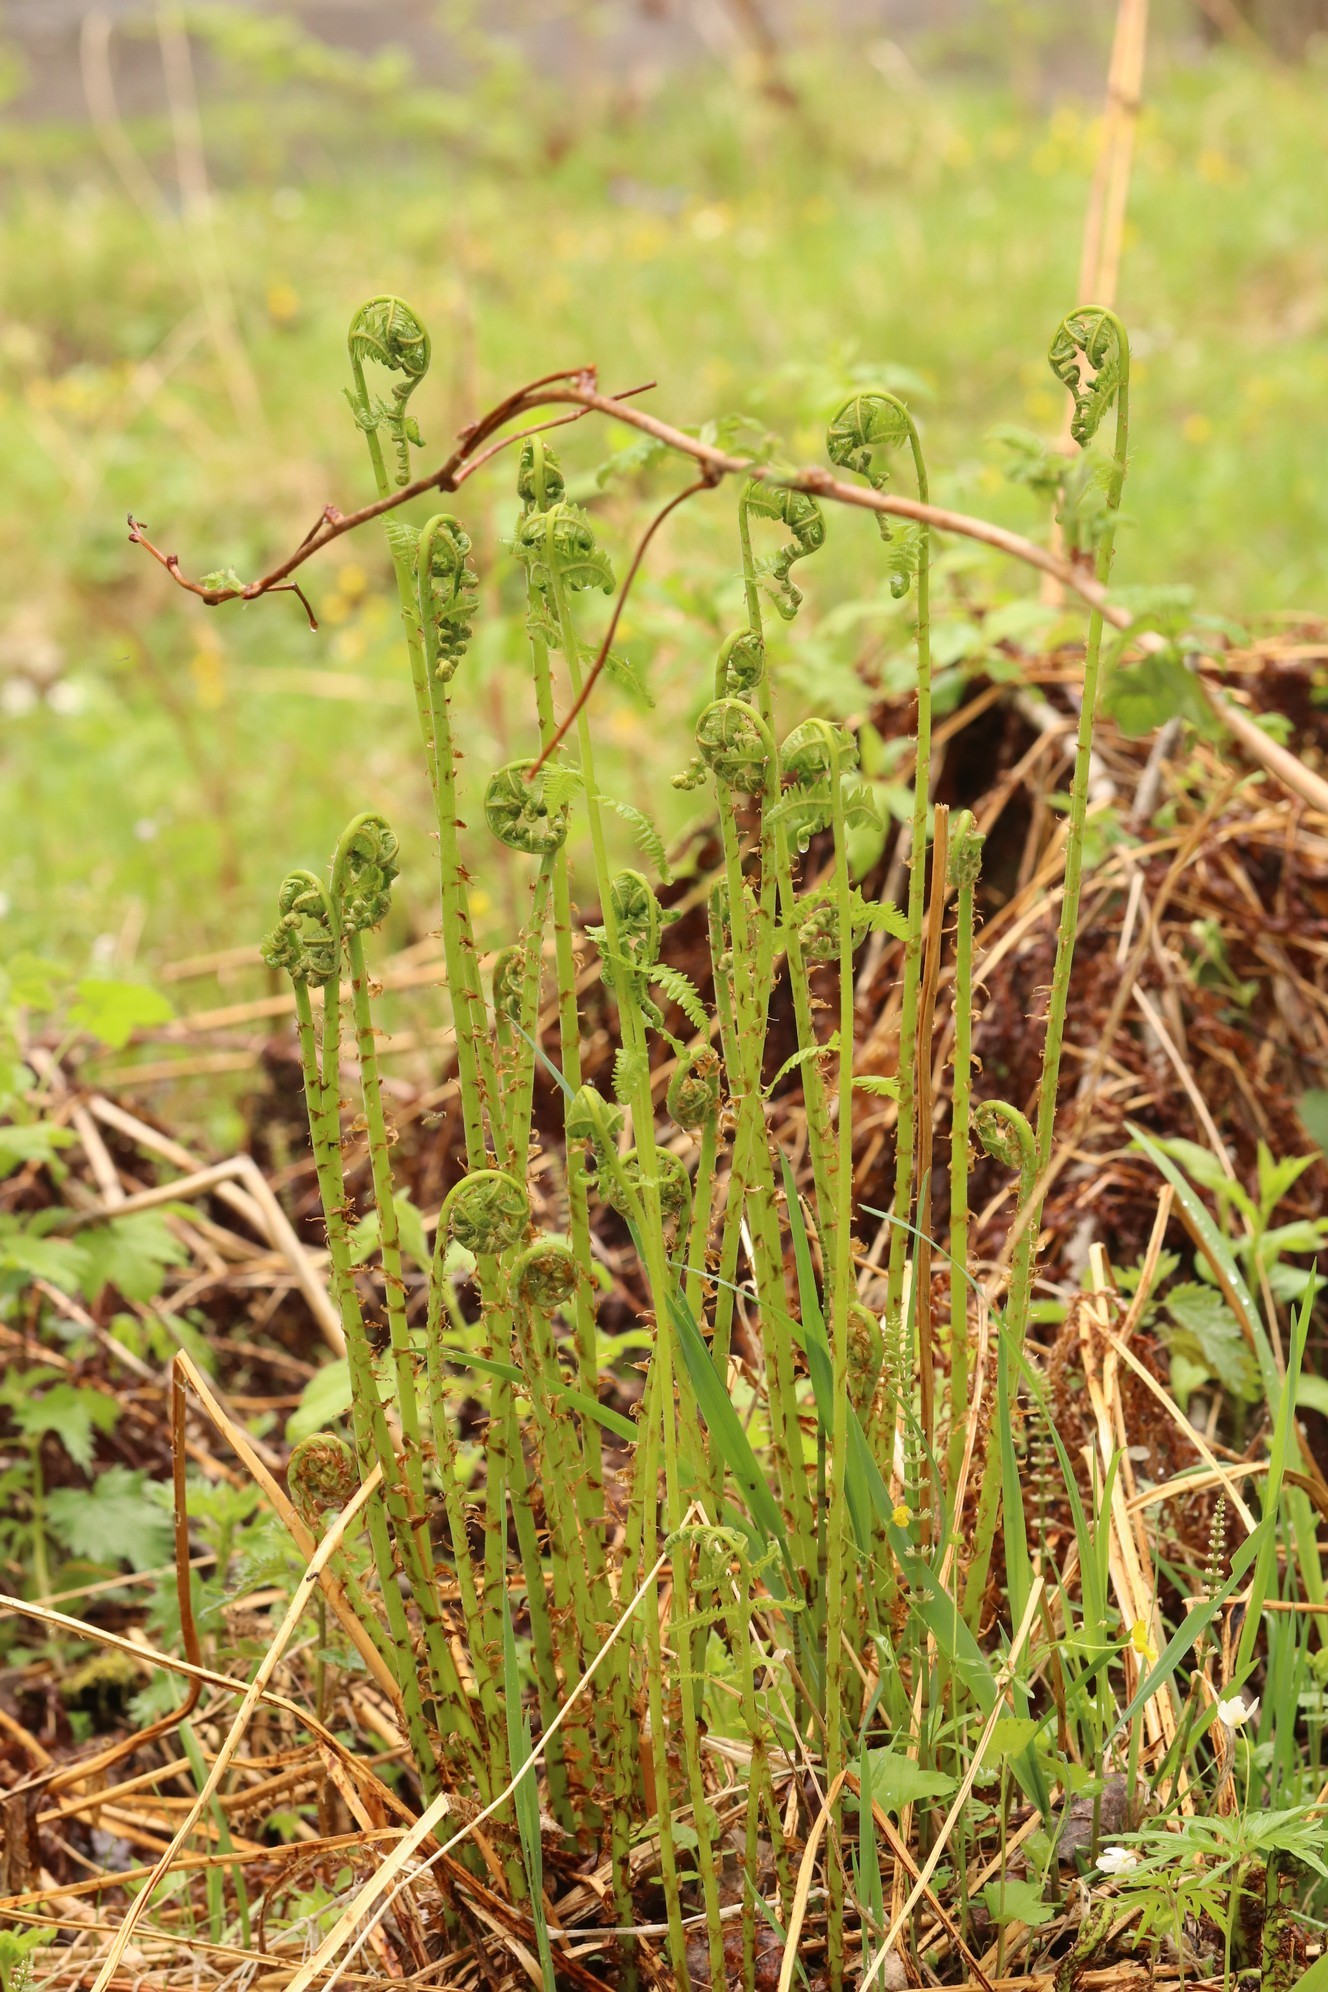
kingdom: Plantae
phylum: Tracheophyta
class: Polypodiopsida
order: Polypodiales
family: Athyriaceae
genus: Athyrium
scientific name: Athyrium filix-femina
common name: Lady fern
